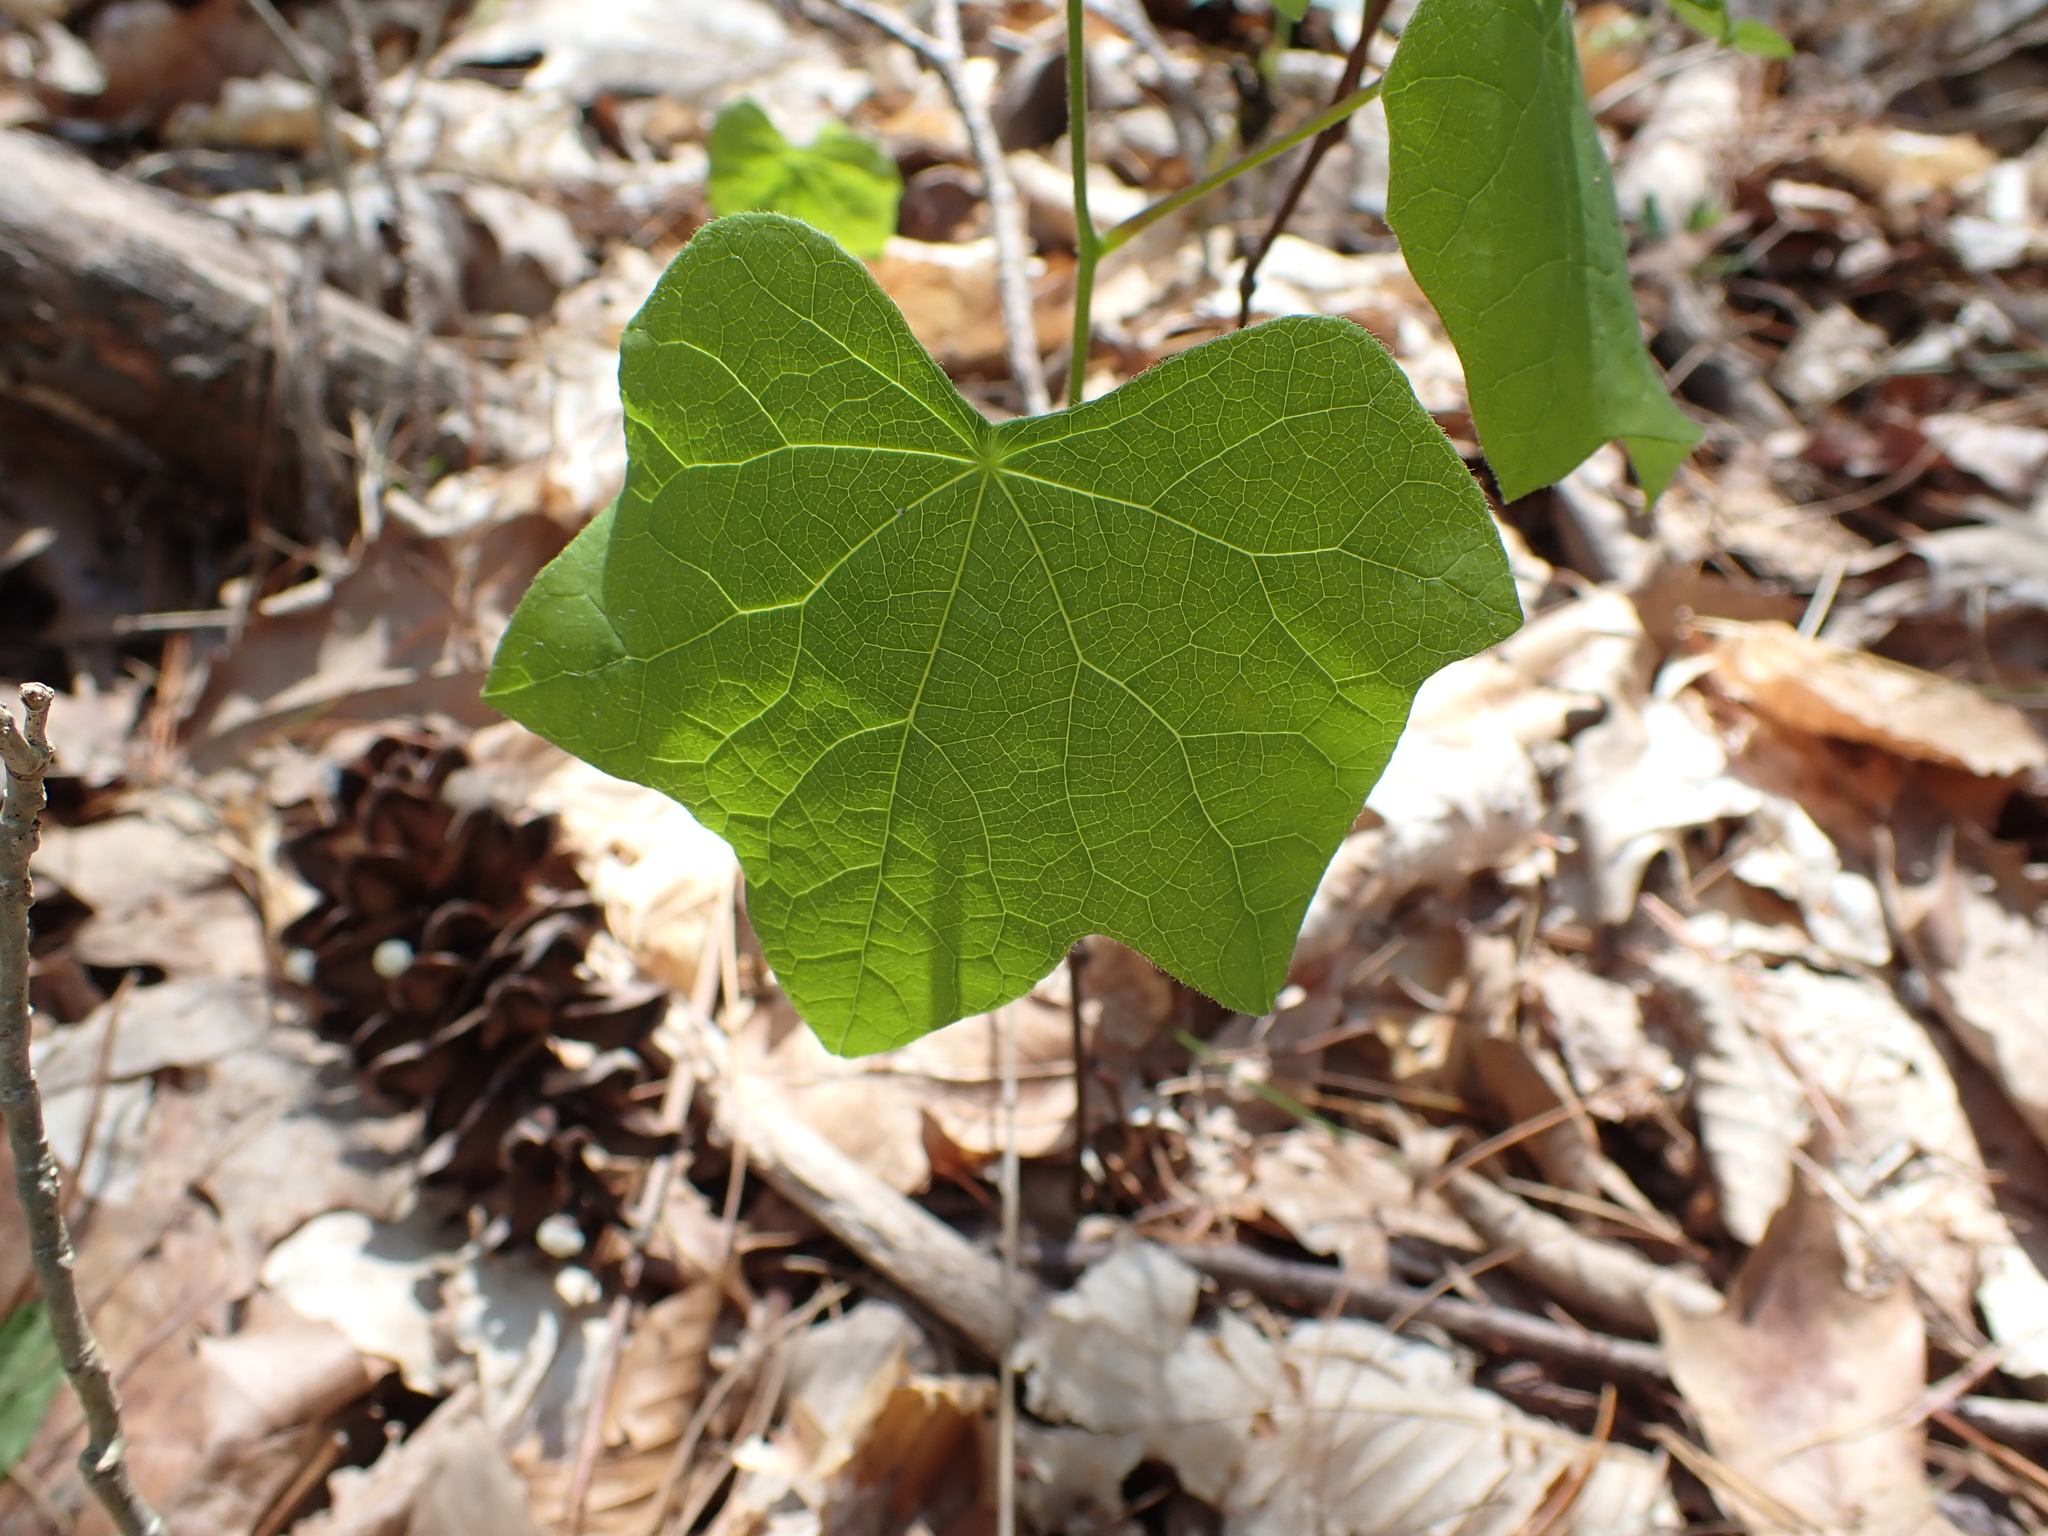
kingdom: Plantae
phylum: Tracheophyta
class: Magnoliopsida
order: Ranunculales
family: Menispermaceae
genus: Menispermum
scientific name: Menispermum canadense
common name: Moonseed
